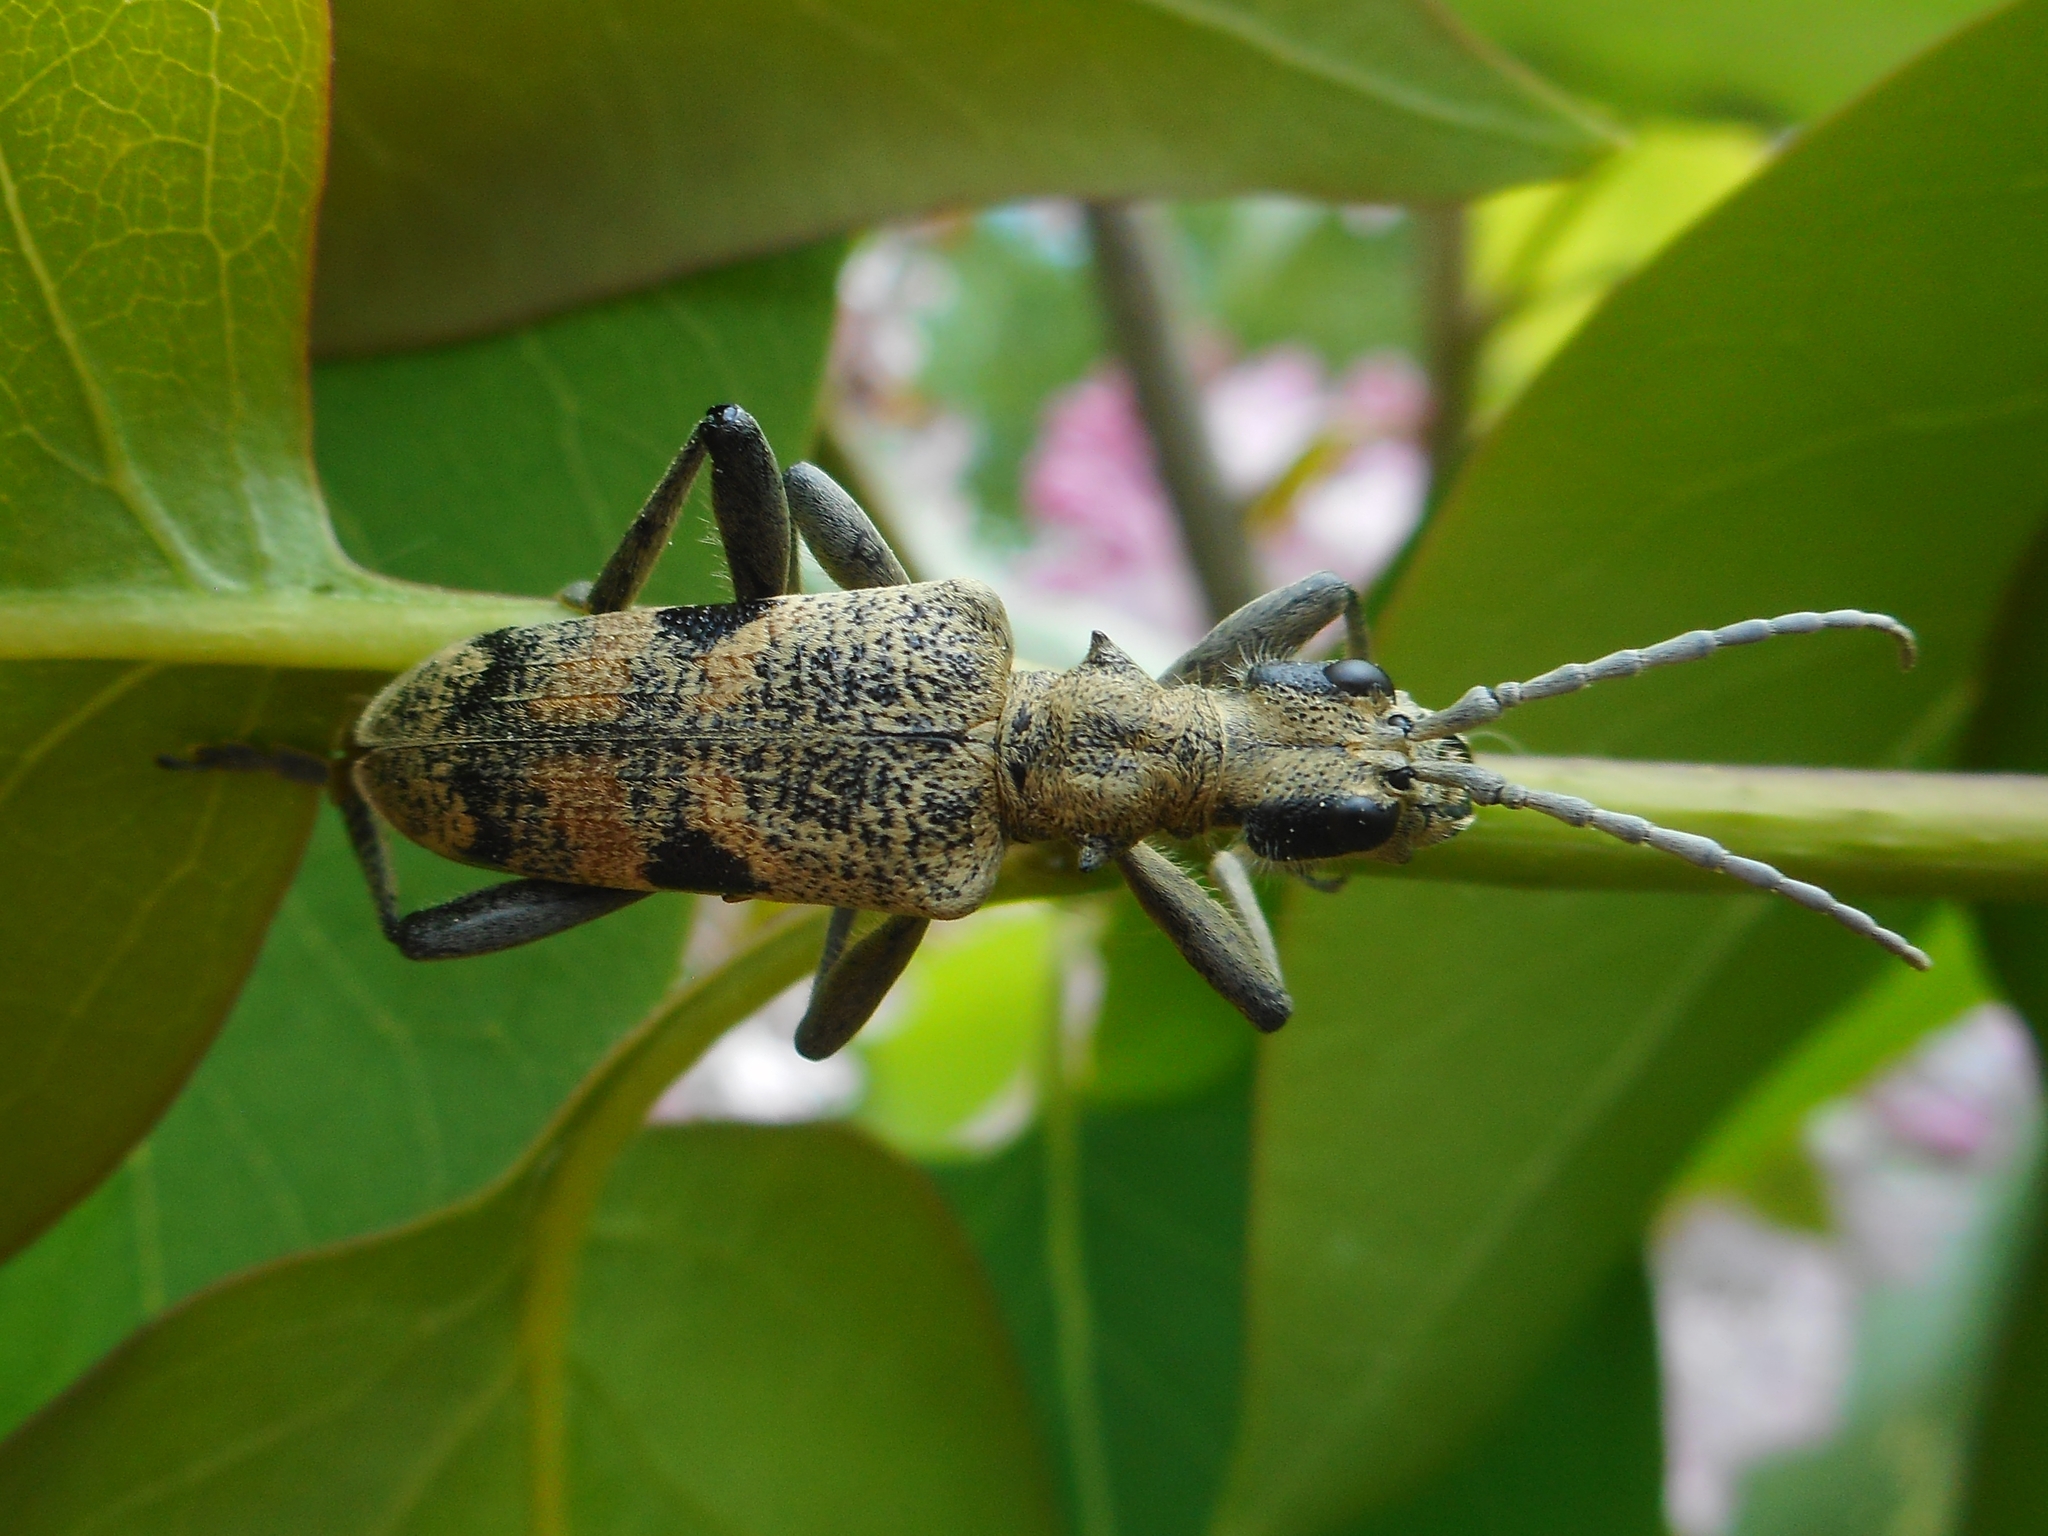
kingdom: Animalia
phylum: Arthropoda
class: Insecta
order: Coleoptera
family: Cerambycidae
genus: Rhagium
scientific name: Rhagium mordax
